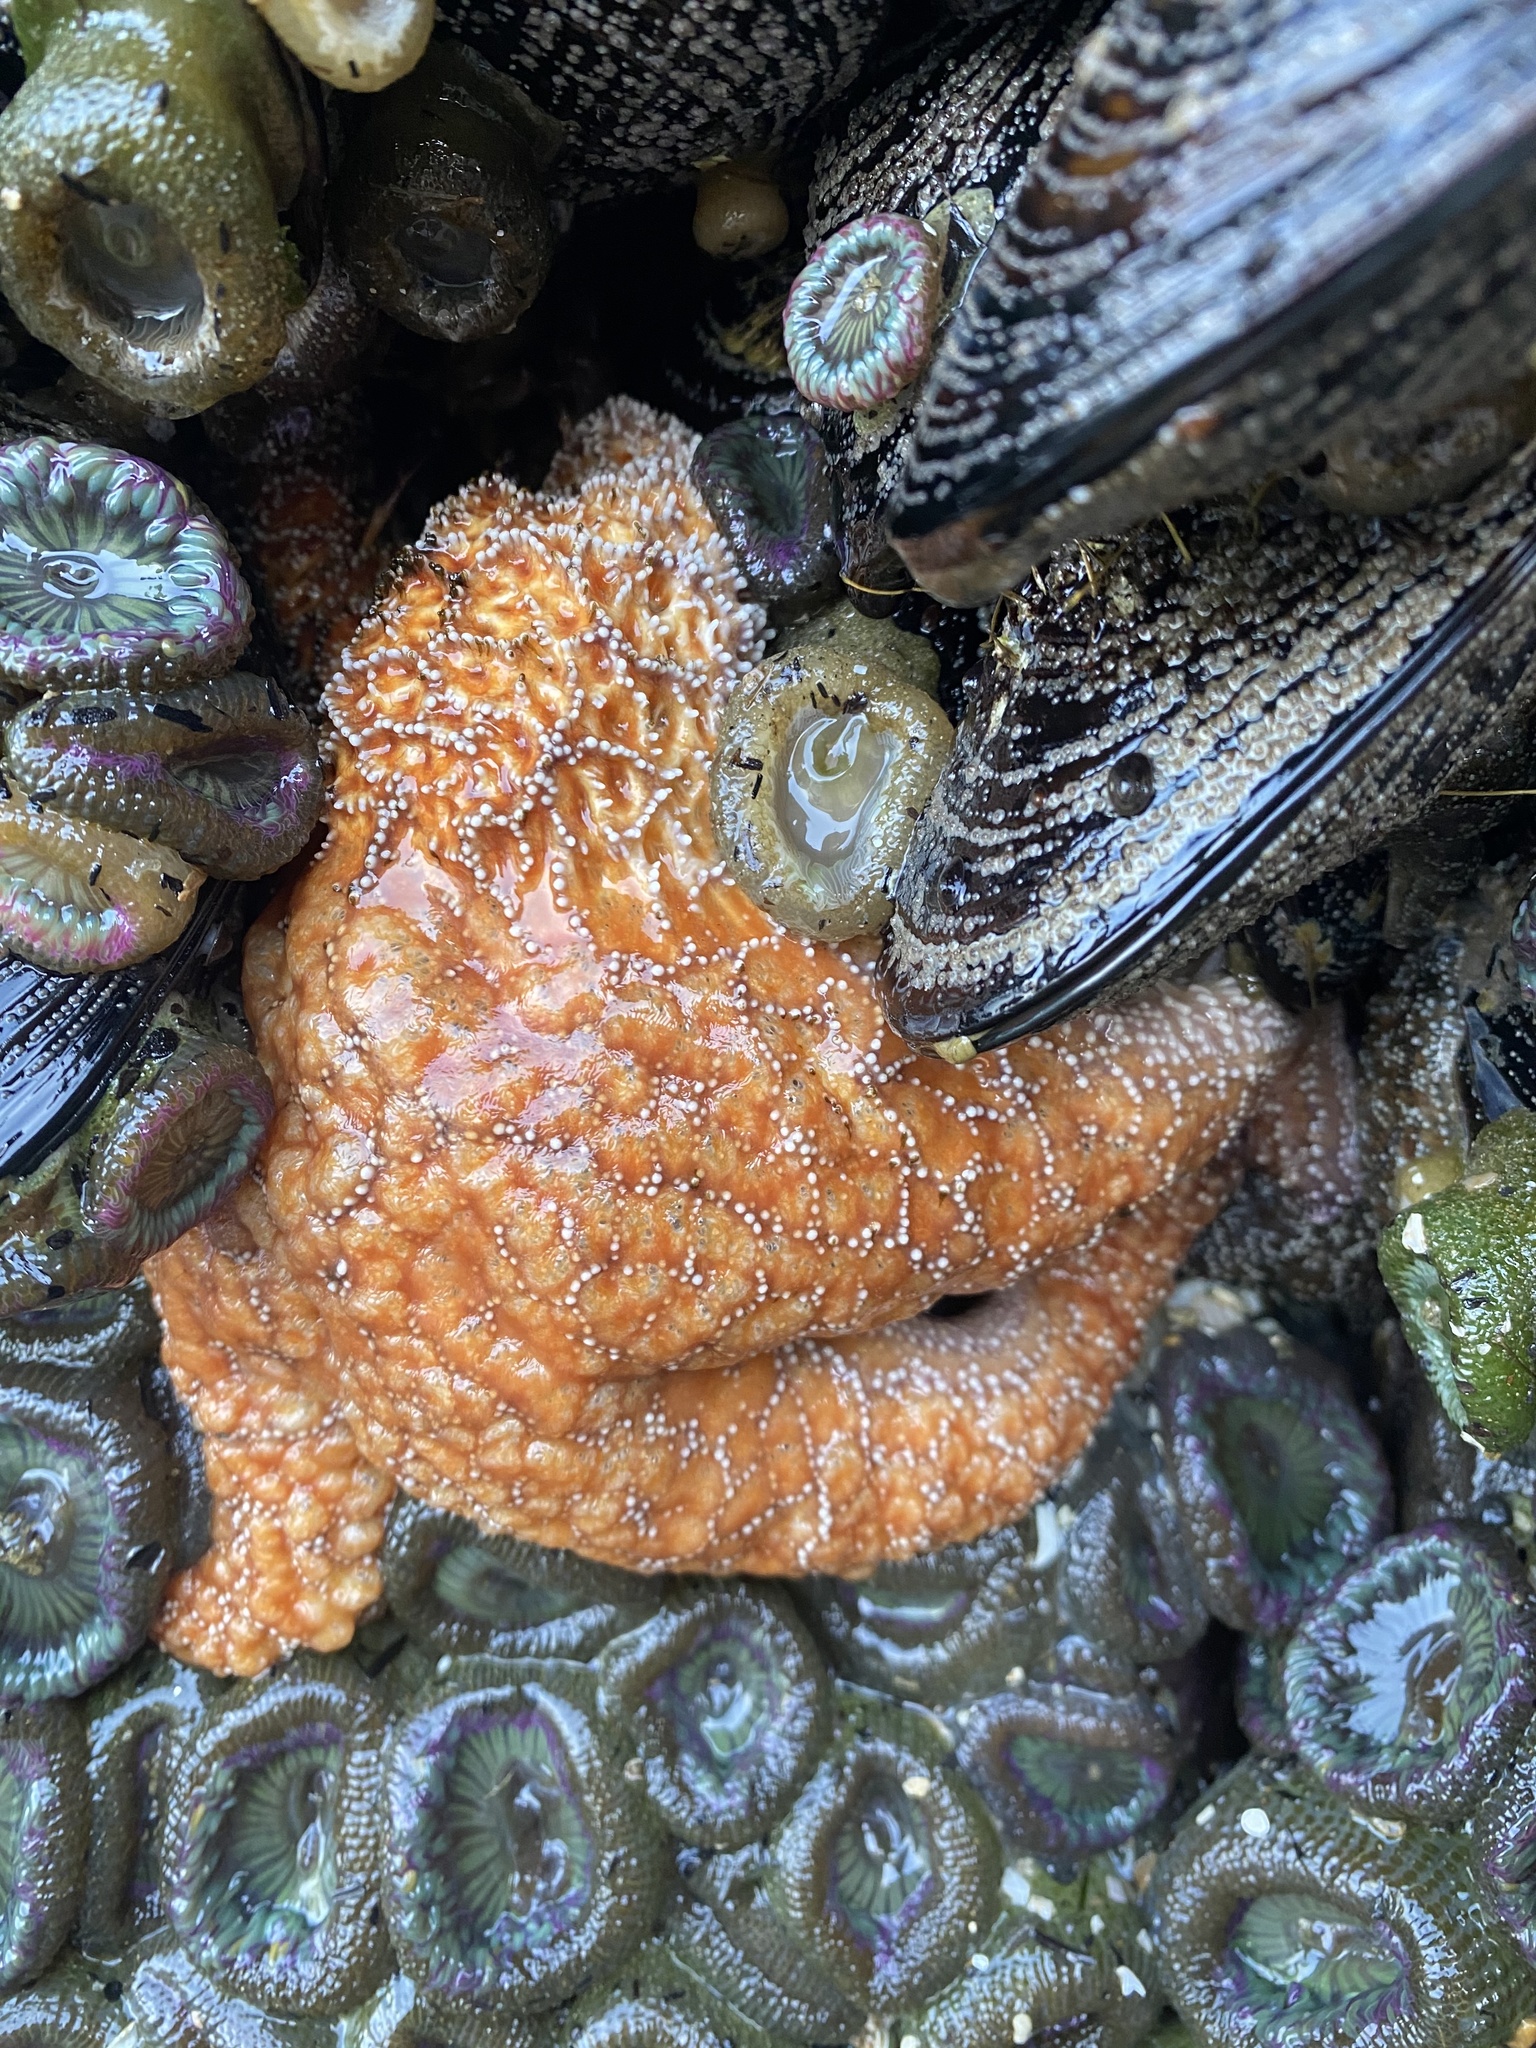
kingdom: Animalia
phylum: Echinodermata
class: Asteroidea
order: Forcipulatida
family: Asteriidae
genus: Pisaster
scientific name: Pisaster ochraceus
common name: Ochre stars
